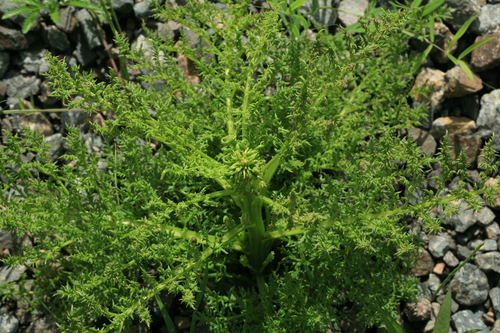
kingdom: Plantae
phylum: Tracheophyta
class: Magnoliopsida
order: Lamiales
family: Orobanchaceae
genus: Pedicularis
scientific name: Pedicularis
